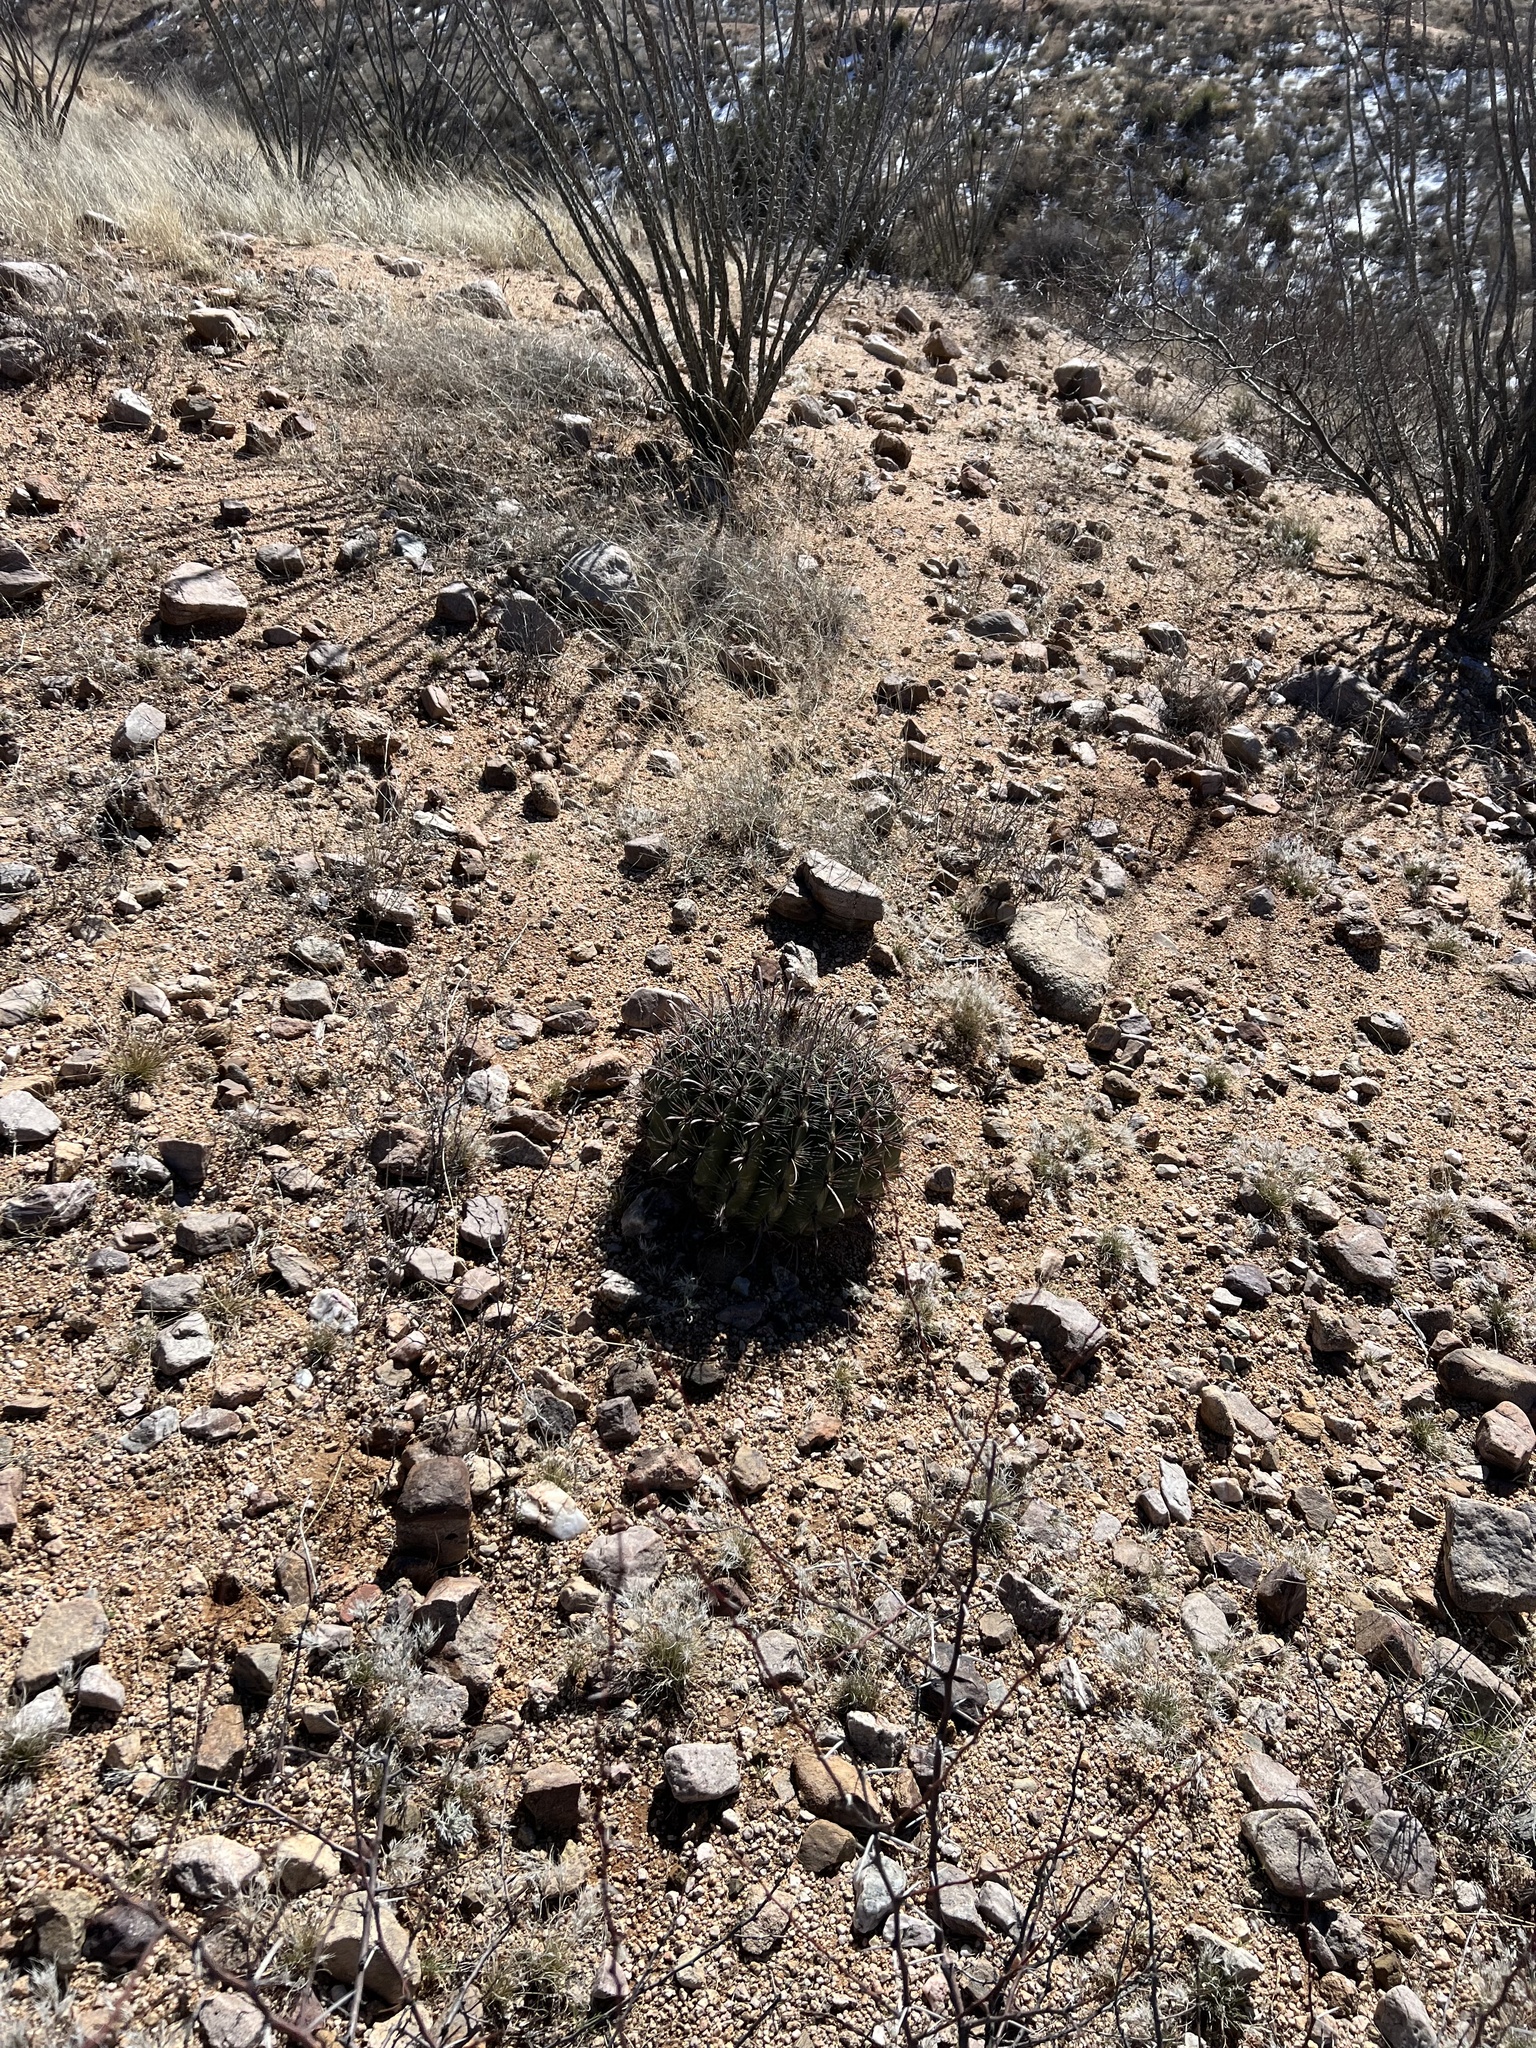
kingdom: Plantae
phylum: Tracheophyta
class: Magnoliopsida
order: Caryophyllales
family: Cactaceae
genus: Ferocactus
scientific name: Ferocactus wislizeni
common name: Candy barrel cactus
